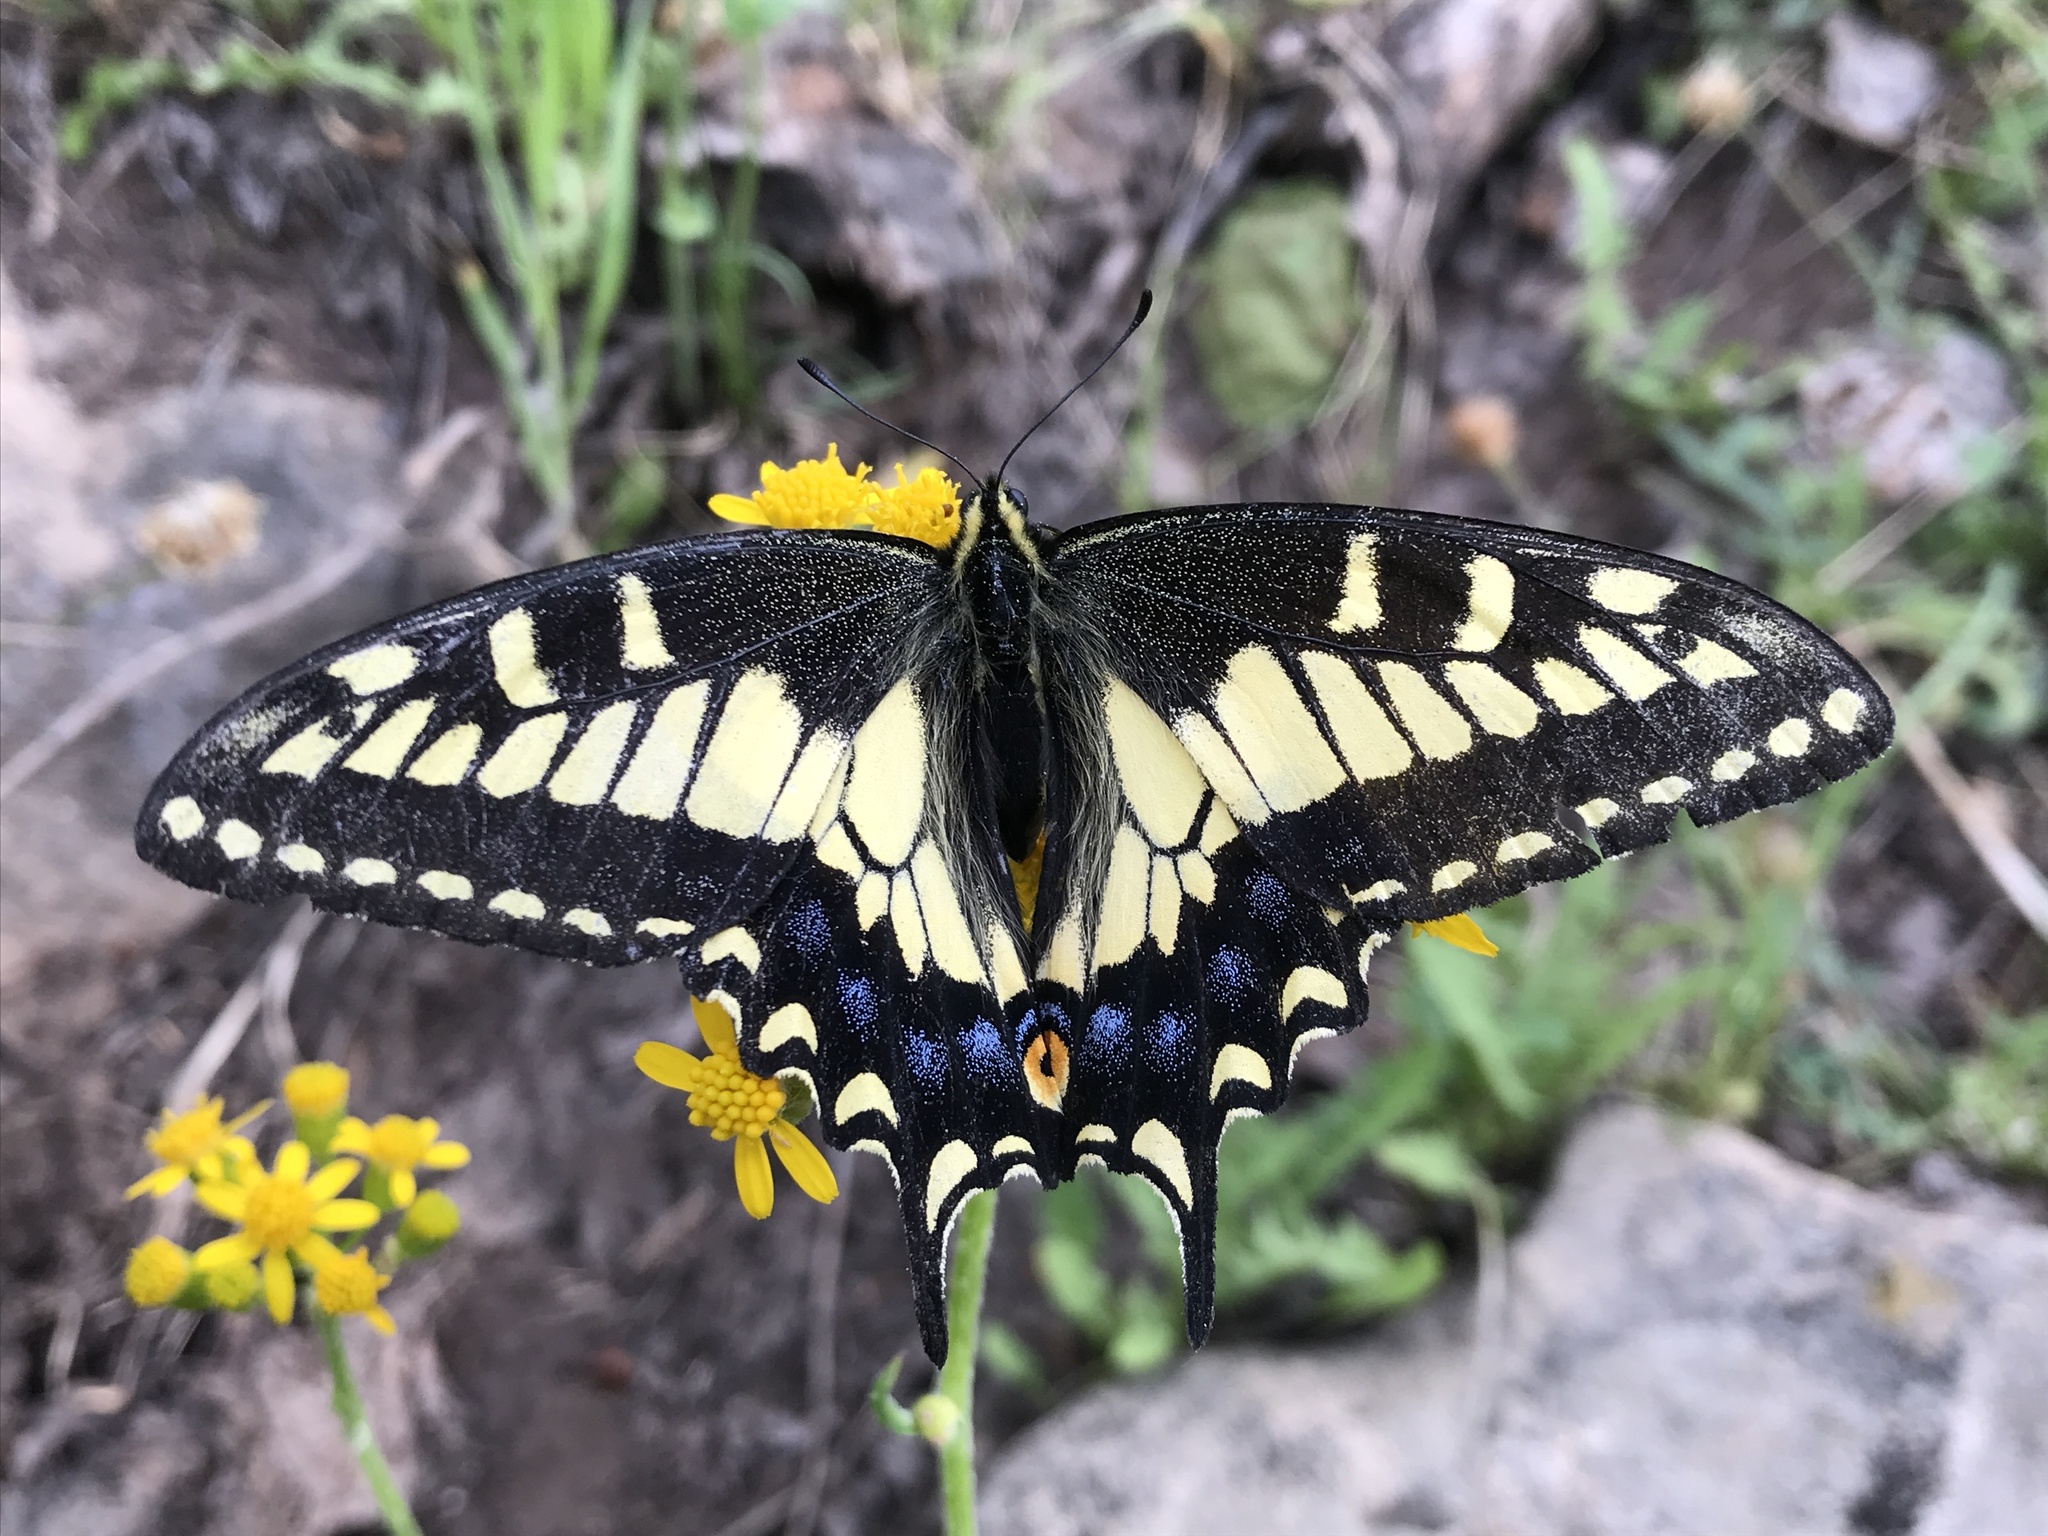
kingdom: Animalia
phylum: Arthropoda
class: Insecta
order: Lepidoptera
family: Papilionidae
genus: Papilio
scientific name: Papilio zelicaon
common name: Anise swallowtail
